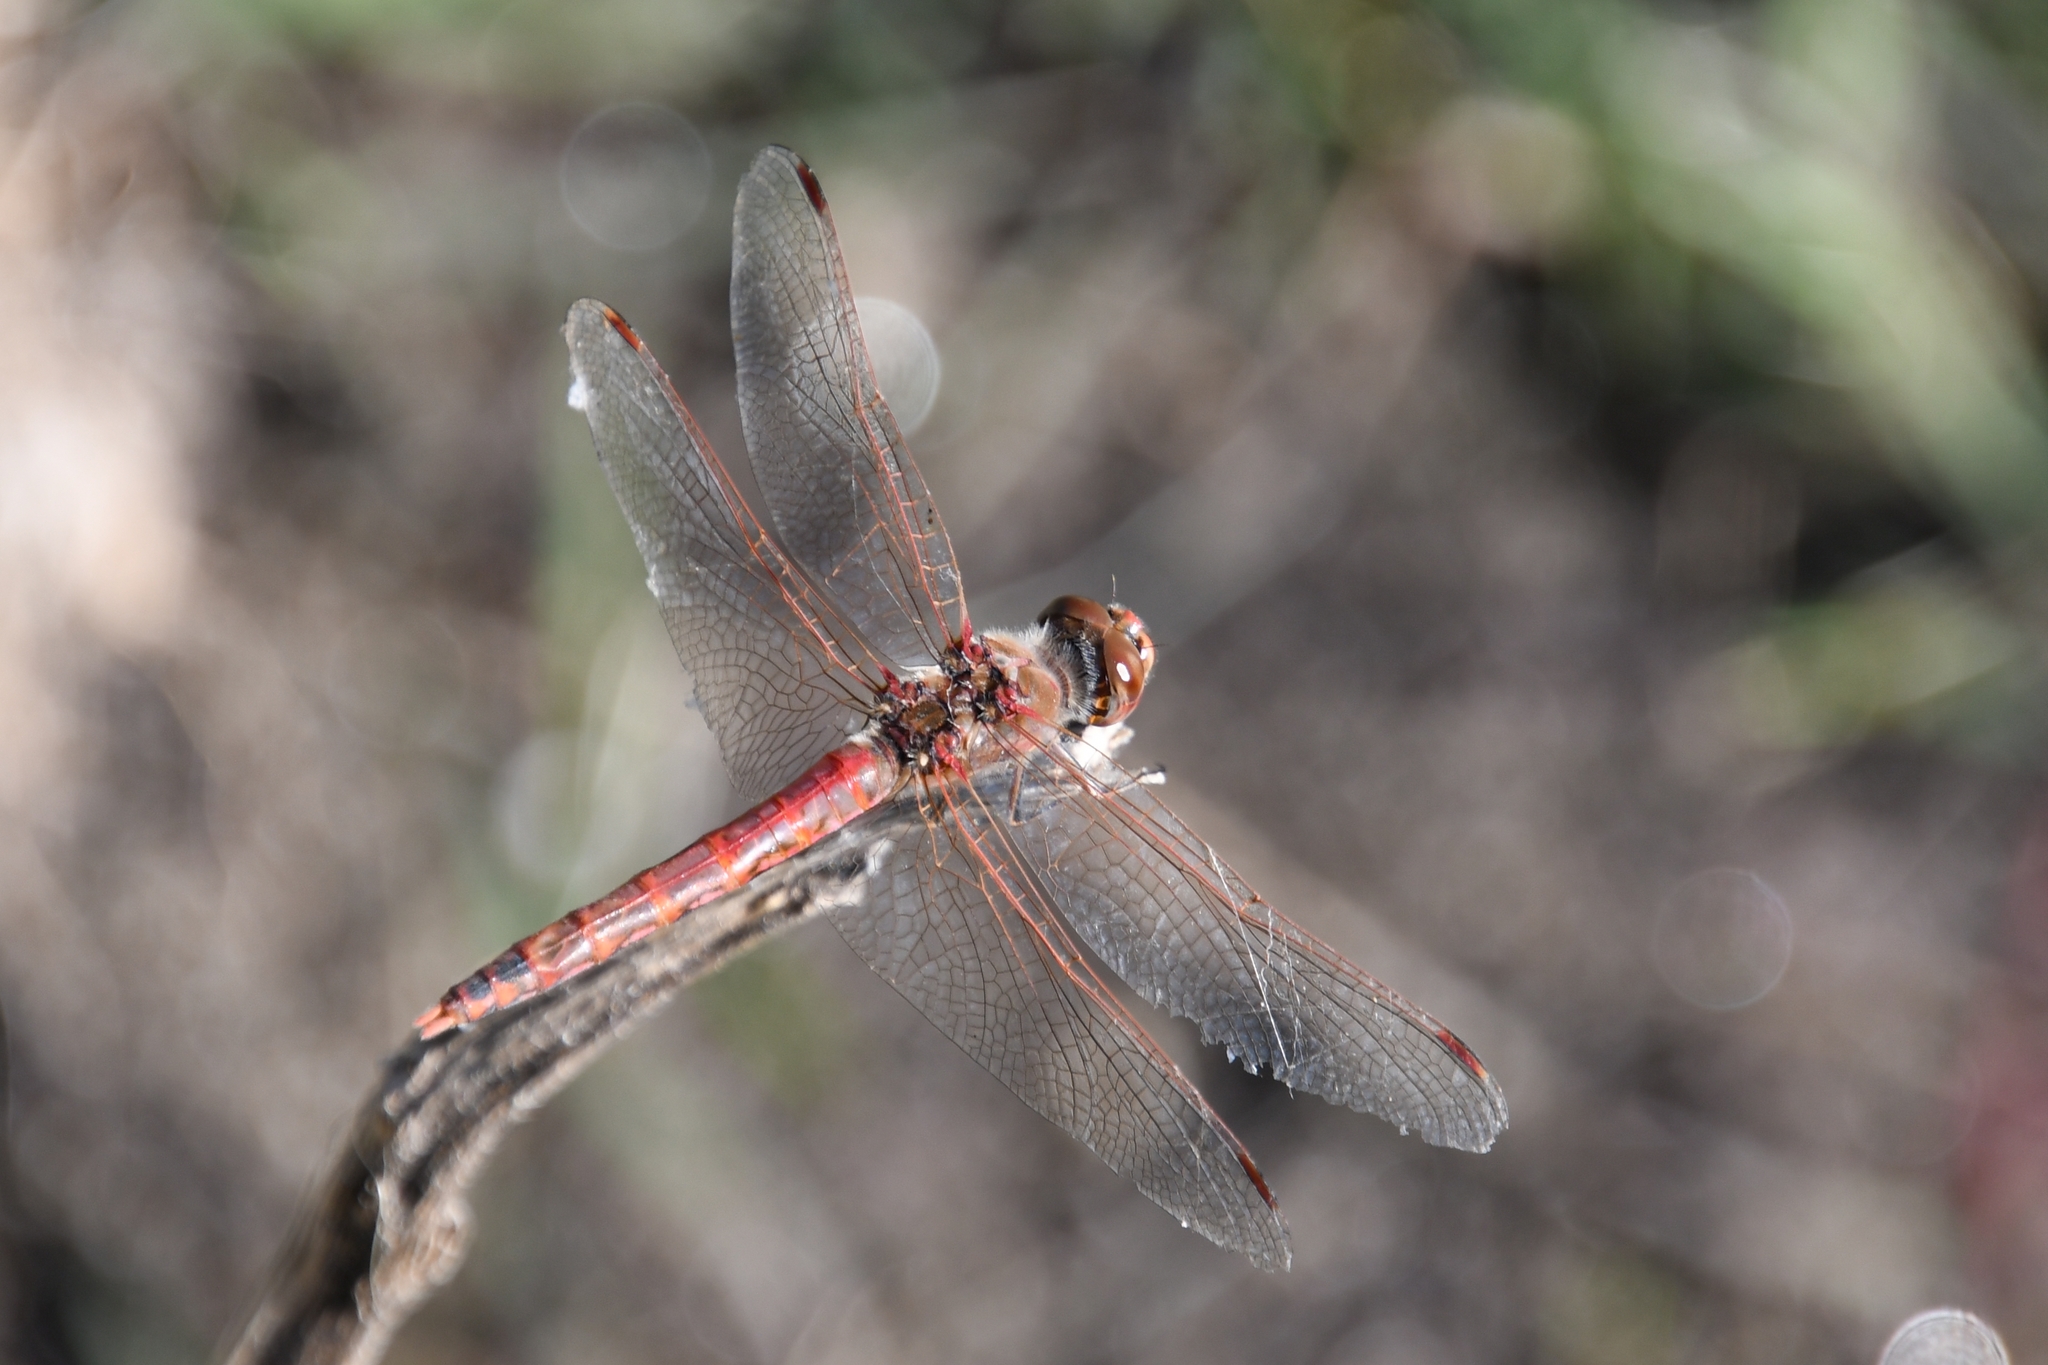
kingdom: Animalia
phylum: Arthropoda
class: Insecta
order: Odonata
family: Libellulidae
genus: Sympetrum
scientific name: Sympetrum corruptum
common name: Variegated meadowhawk
